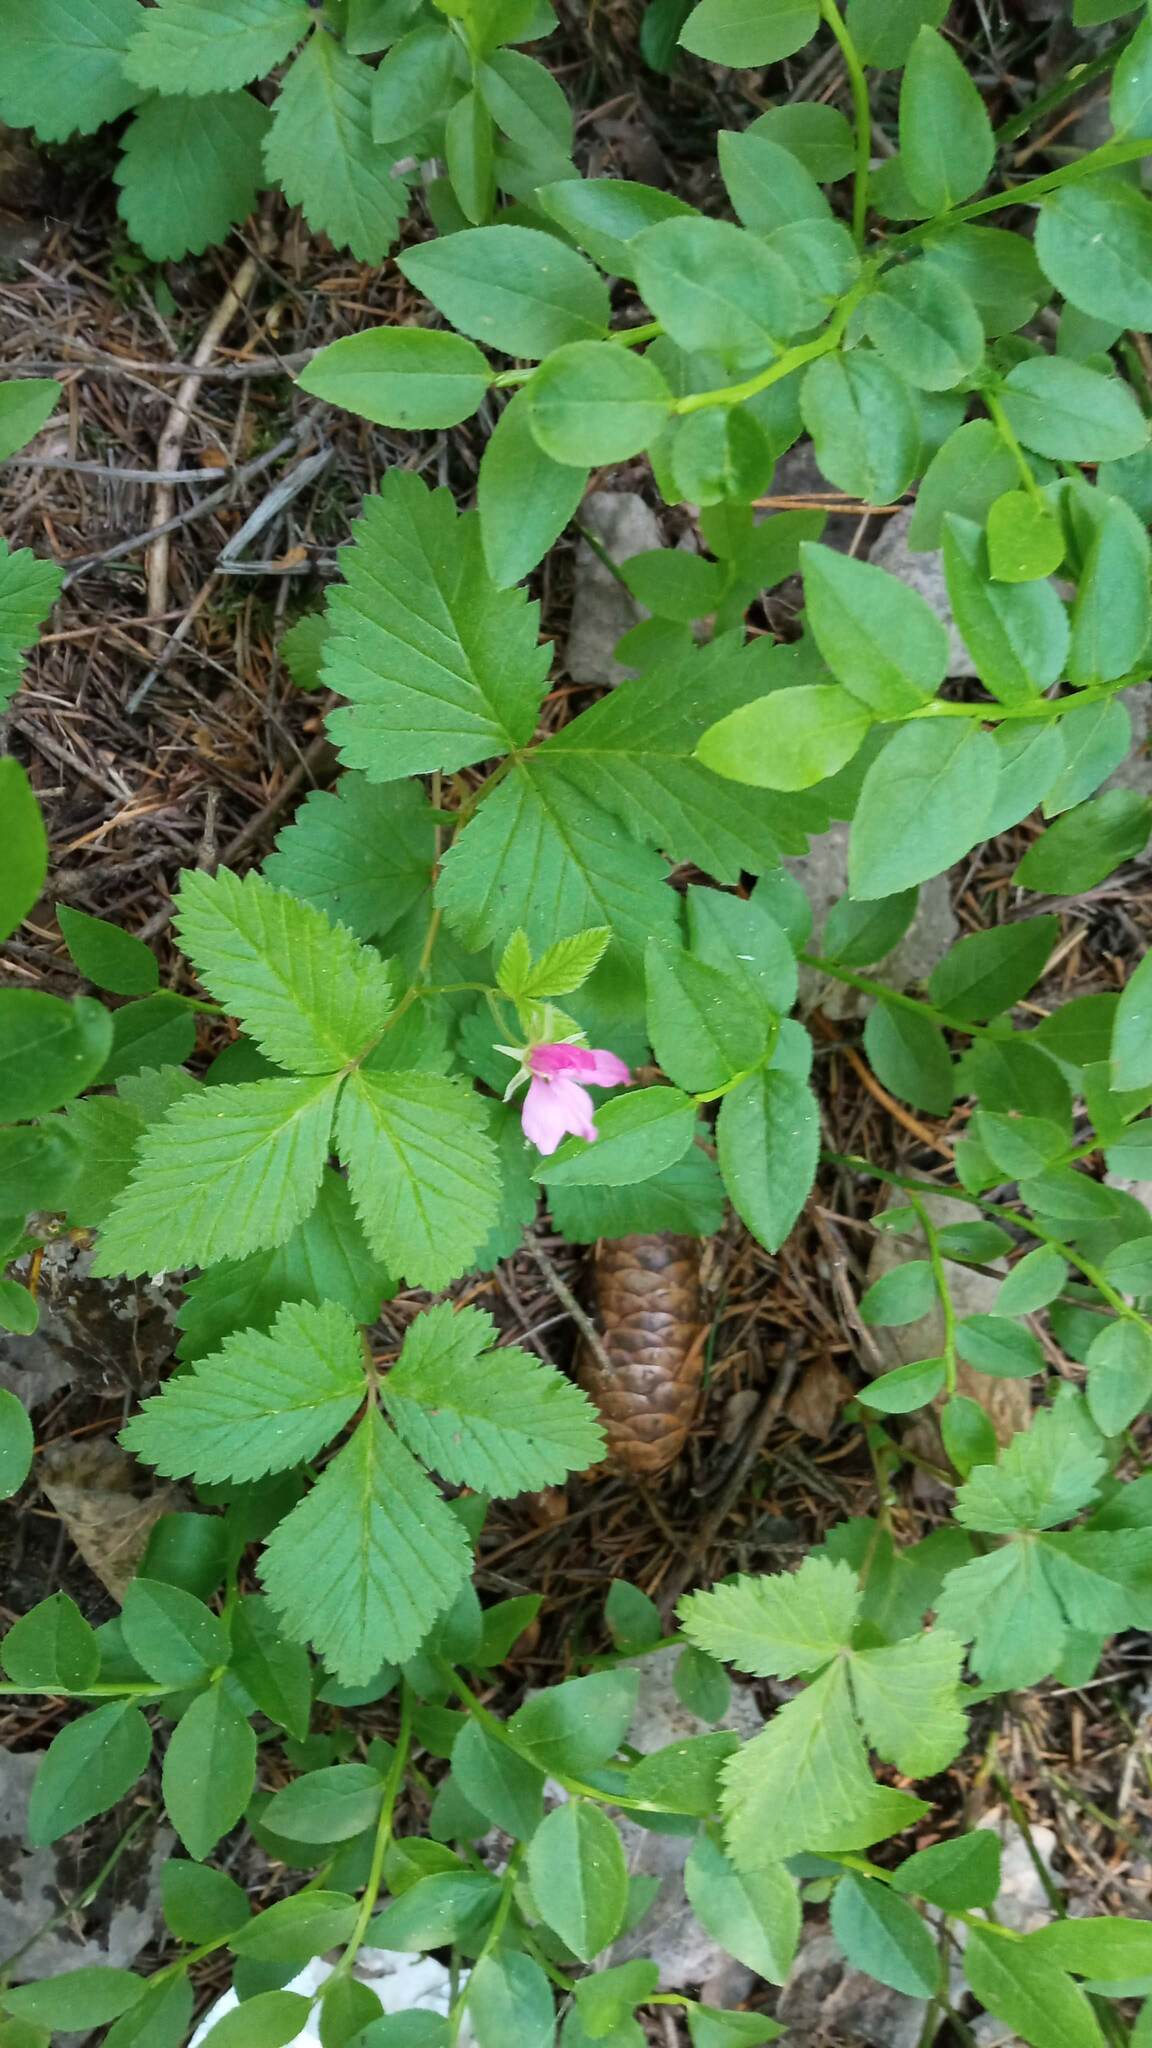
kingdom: Plantae
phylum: Tracheophyta
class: Magnoliopsida
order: Rosales
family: Rosaceae
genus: Rubus
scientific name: Rubus arcticus
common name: Arctic bramble
